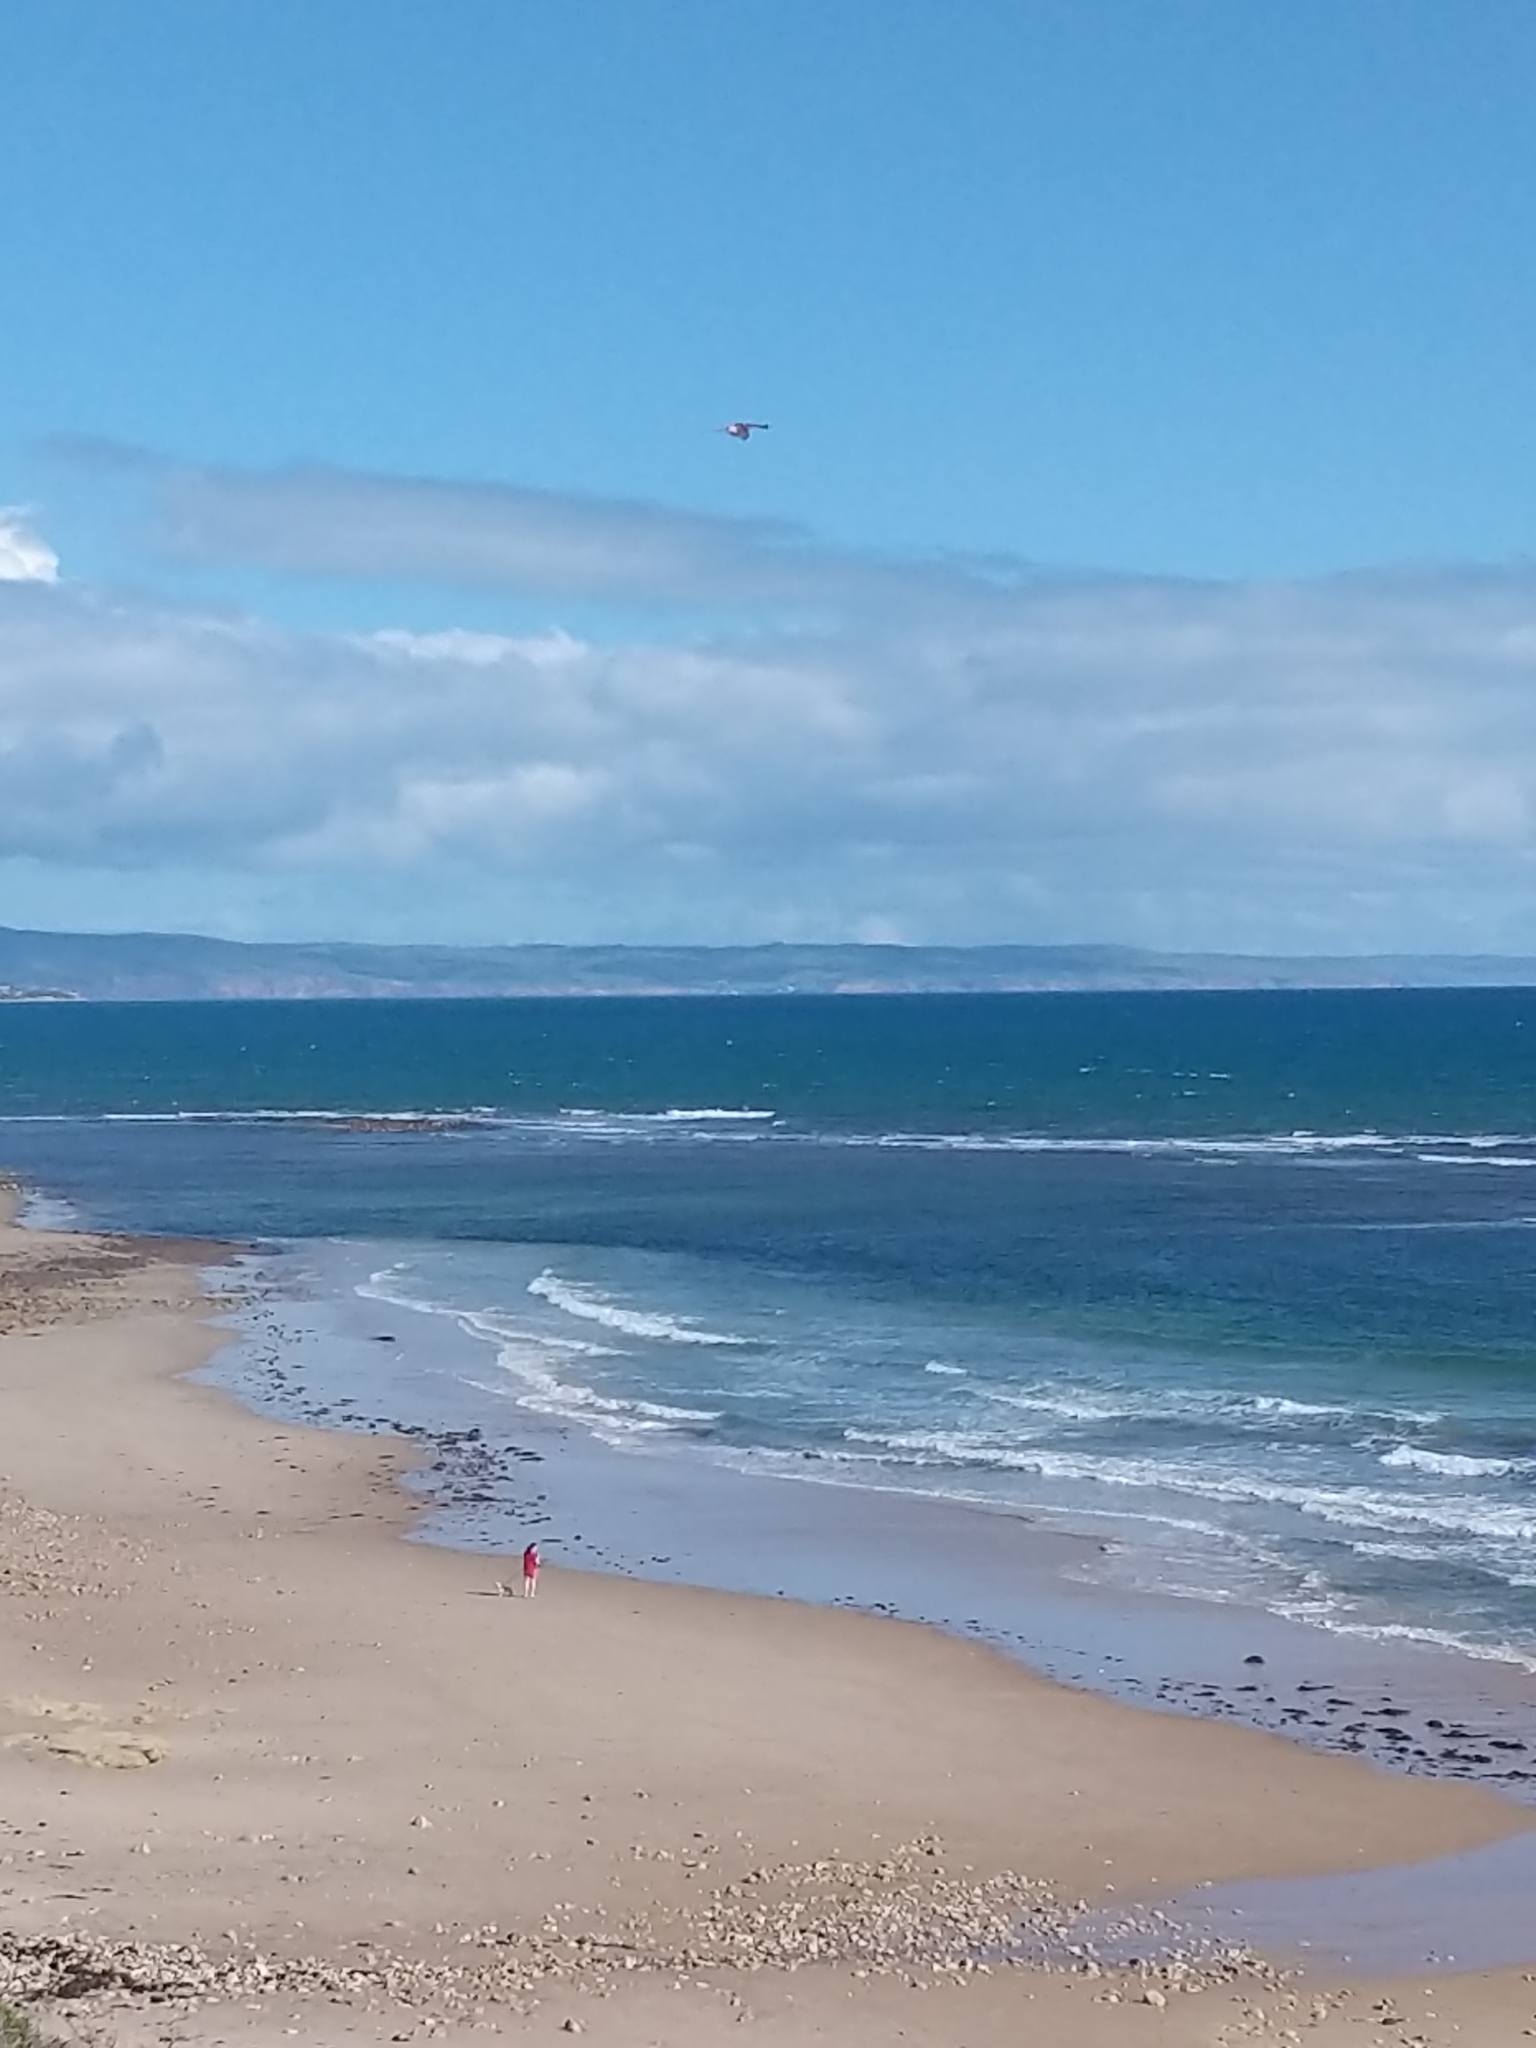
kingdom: Animalia
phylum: Chordata
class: Aves
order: Falconiformes
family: Falconidae
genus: Falco
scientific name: Falco cenchroides
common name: Nankeen kestrel
